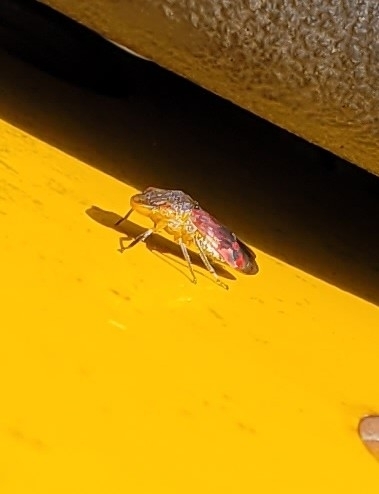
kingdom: Animalia
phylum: Arthropoda
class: Insecta
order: Hemiptera
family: Cicadellidae
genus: Homalodisca
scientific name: Homalodisca vitripennis
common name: Glassy-winged sharpshooter
